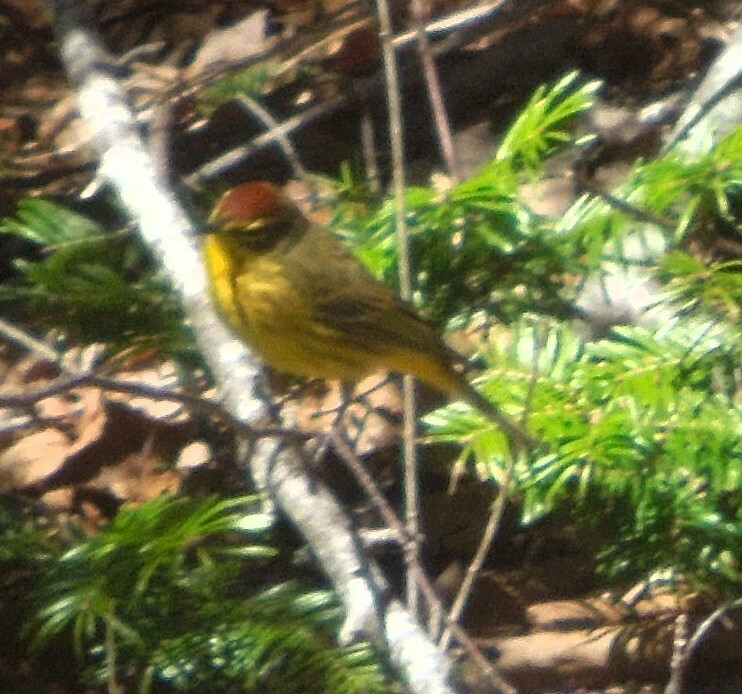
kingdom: Animalia
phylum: Chordata
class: Aves
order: Passeriformes
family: Parulidae
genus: Setophaga
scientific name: Setophaga palmarum
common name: Palm warbler
